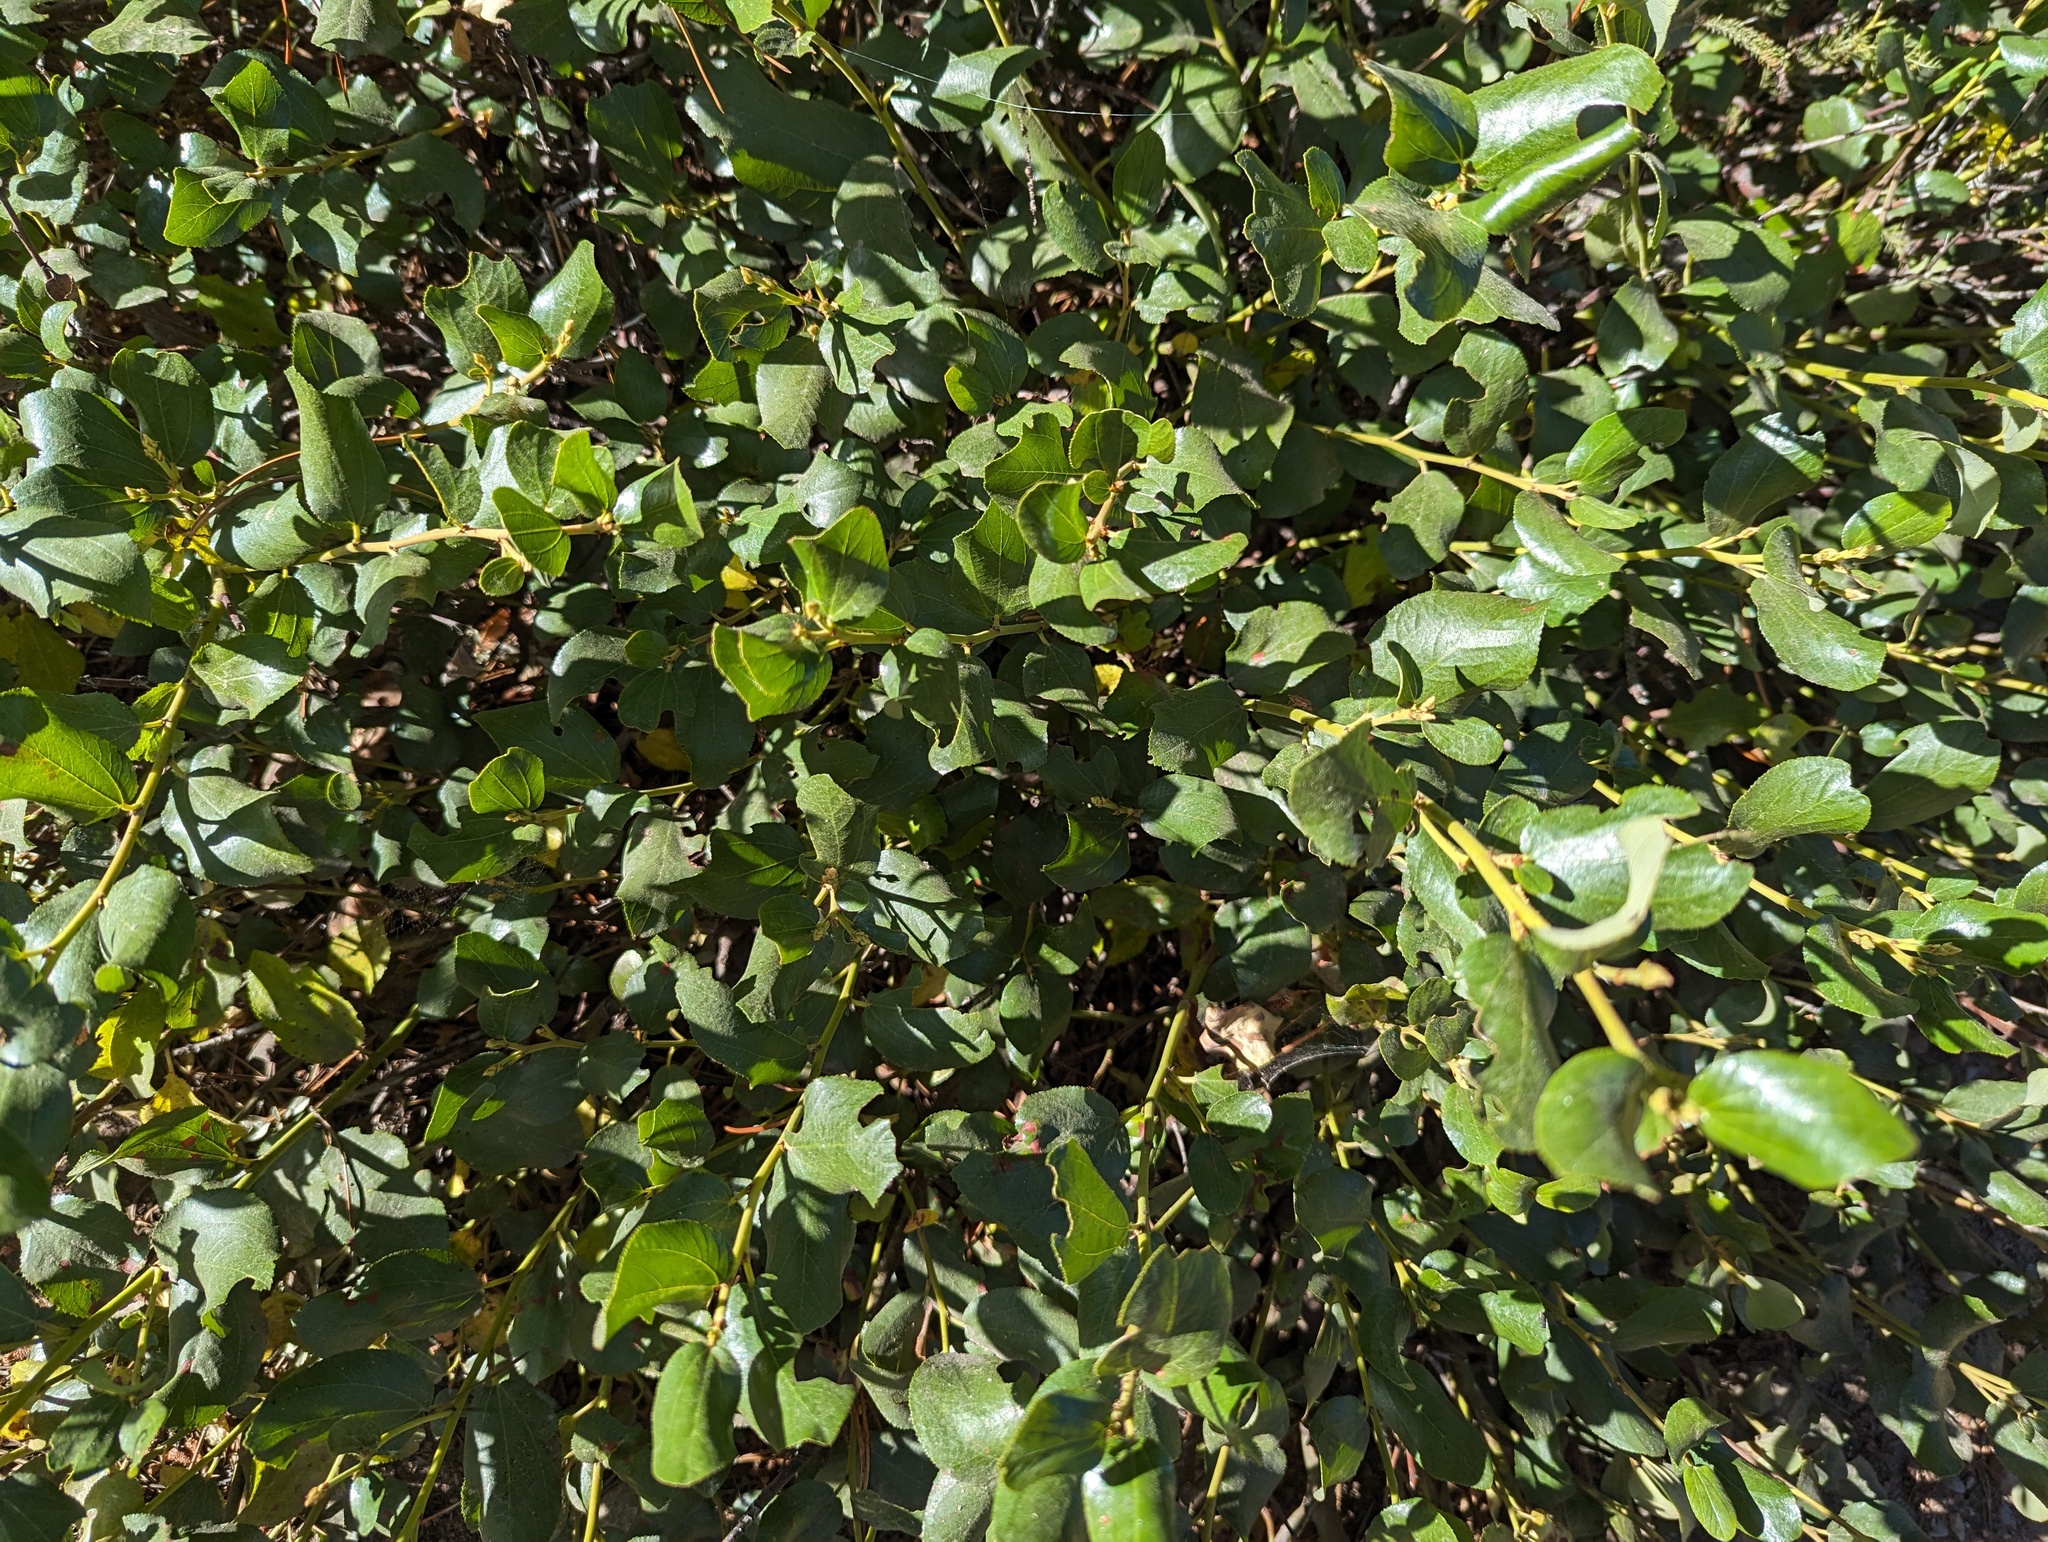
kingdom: Plantae
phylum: Tracheophyta
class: Magnoliopsida
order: Rosales
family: Rhamnaceae
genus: Ceanothus
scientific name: Ceanothus velutinus
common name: Snowbrush
